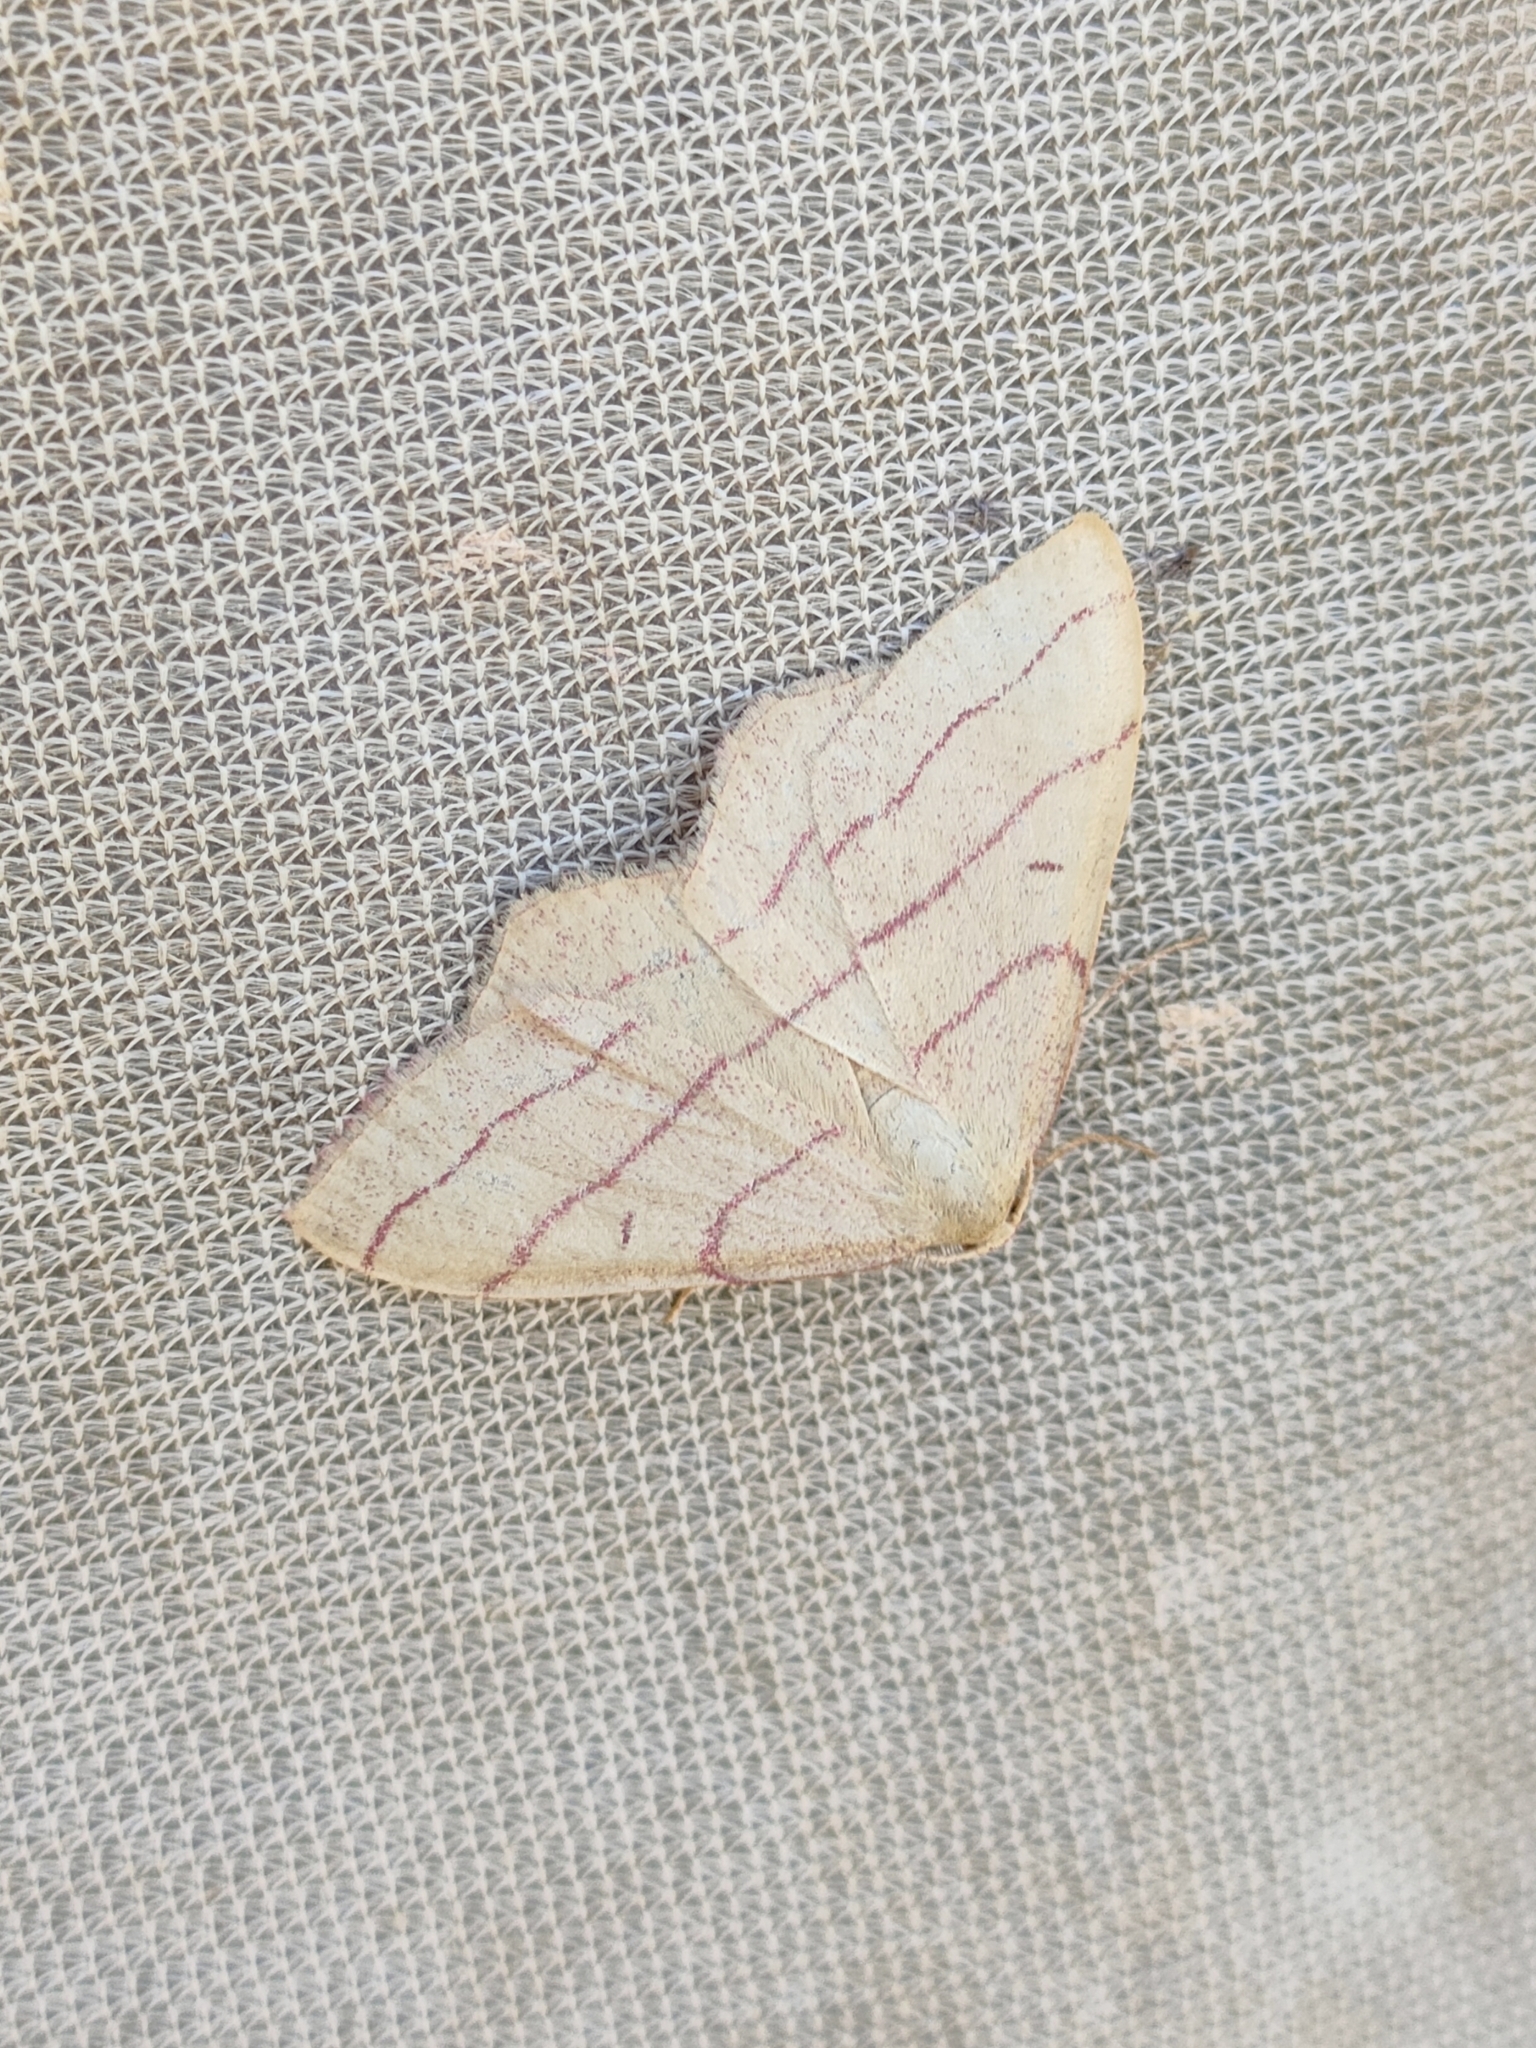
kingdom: Animalia
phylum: Arthropoda
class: Insecta
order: Lepidoptera
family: Geometridae
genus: Rhodostrophia
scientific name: Rhodostrophia vibicaria
